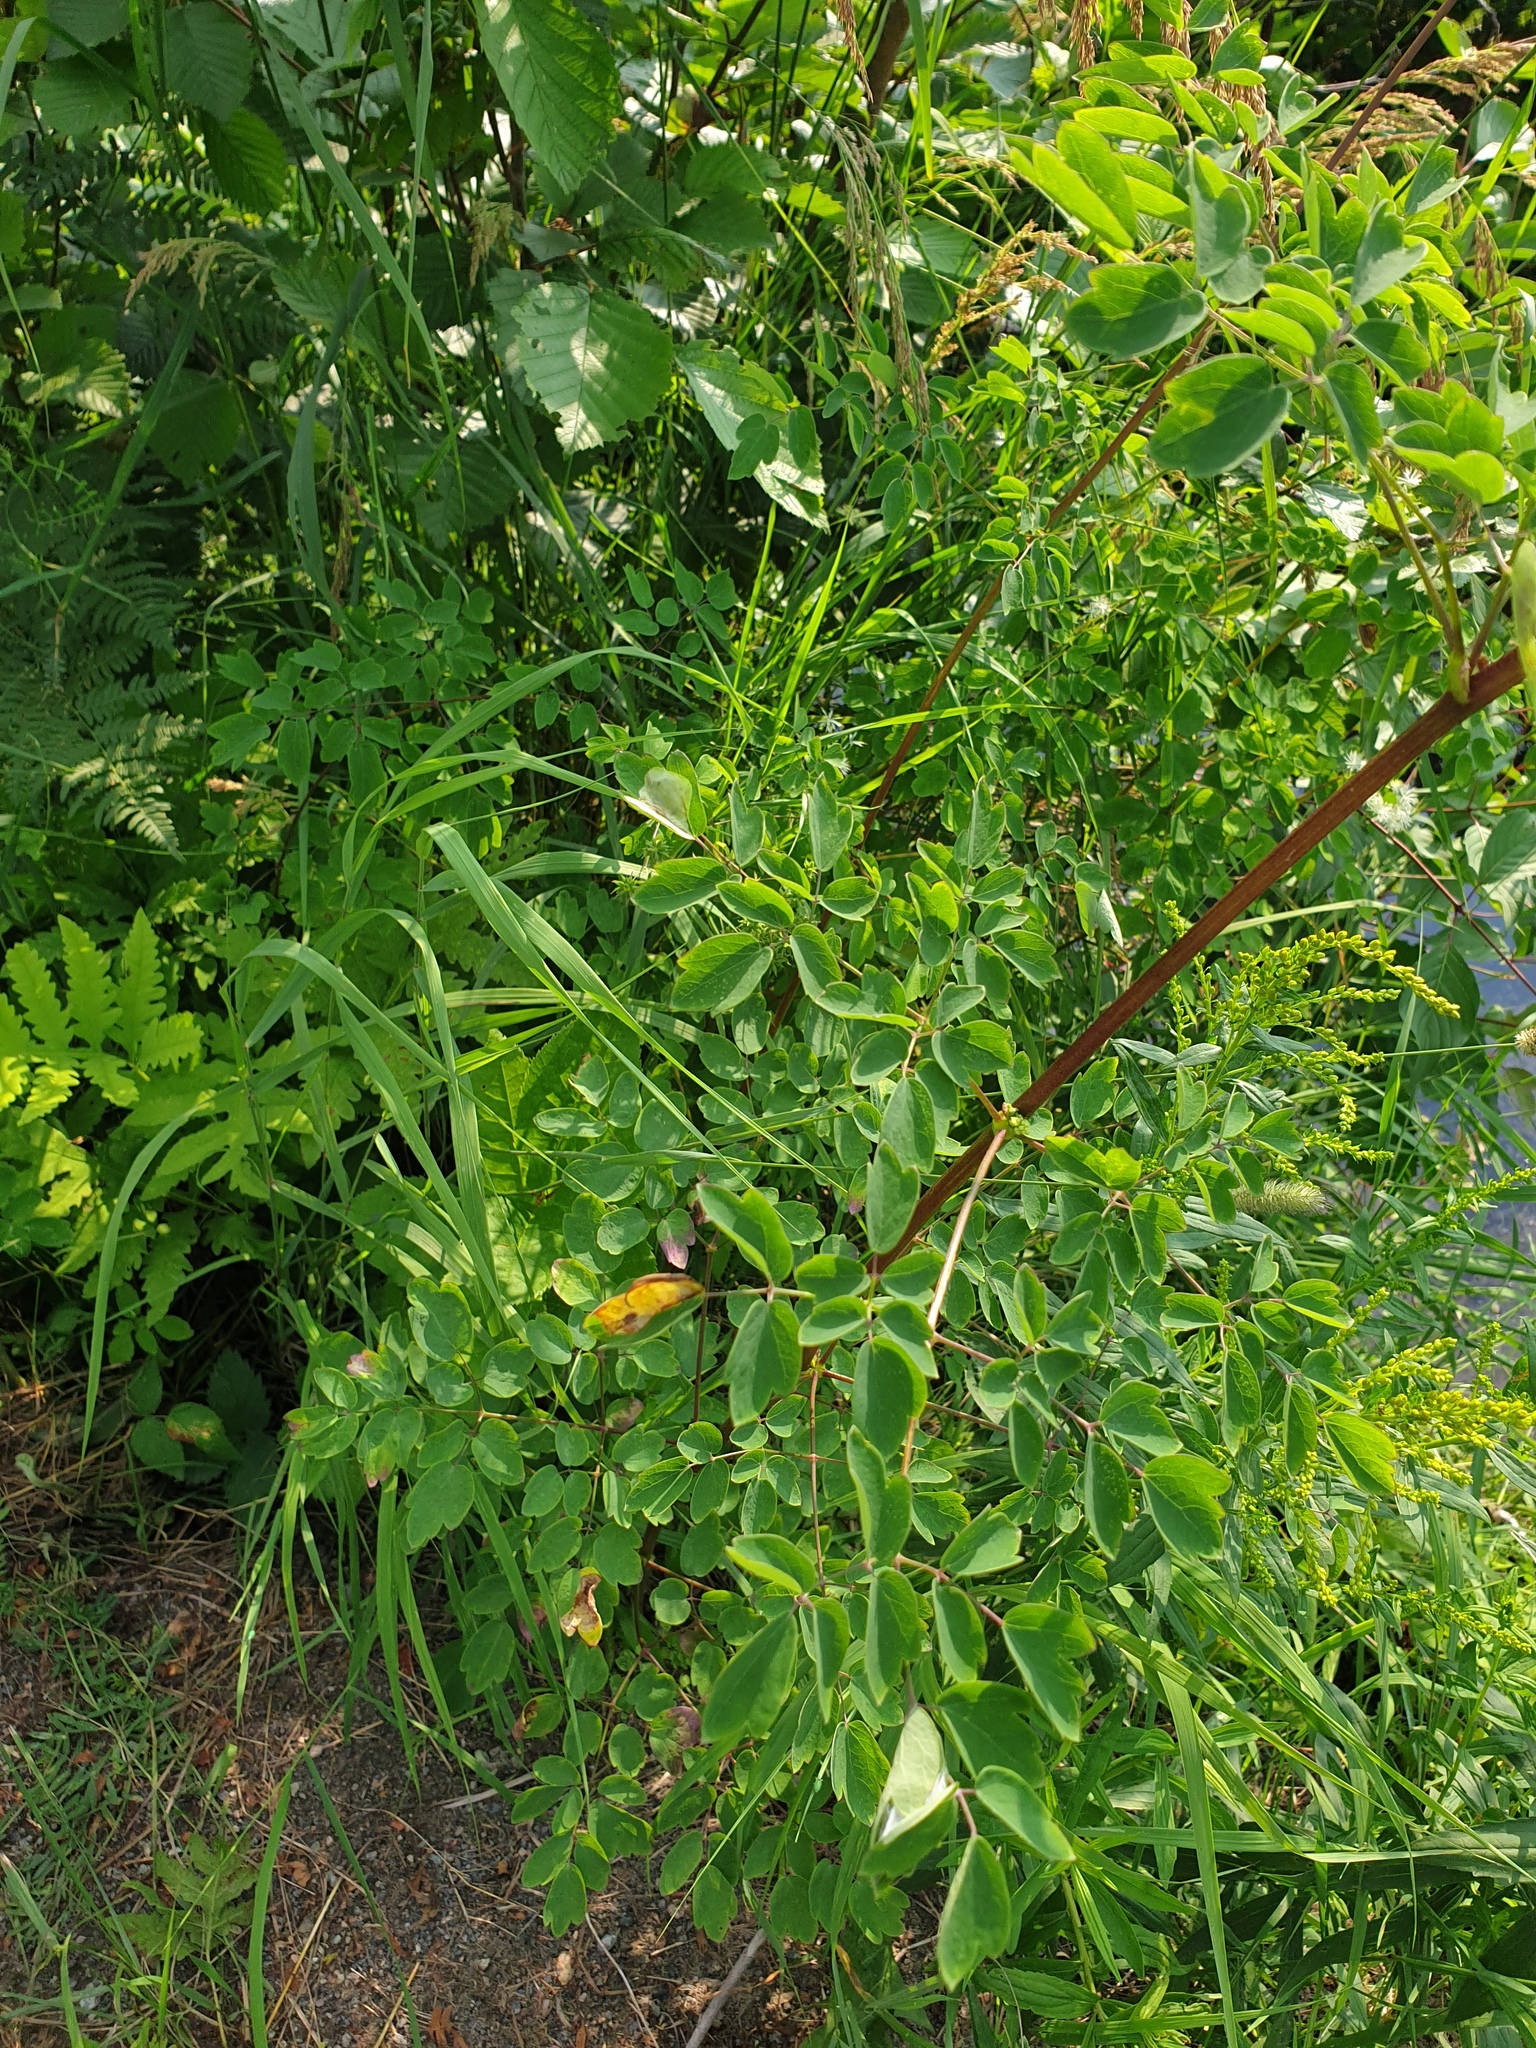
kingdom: Plantae
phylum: Tracheophyta
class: Magnoliopsida
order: Ranunculales
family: Ranunculaceae
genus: Thalictrum
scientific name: Thalictrum pubescens
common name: King-of-the-meadow
